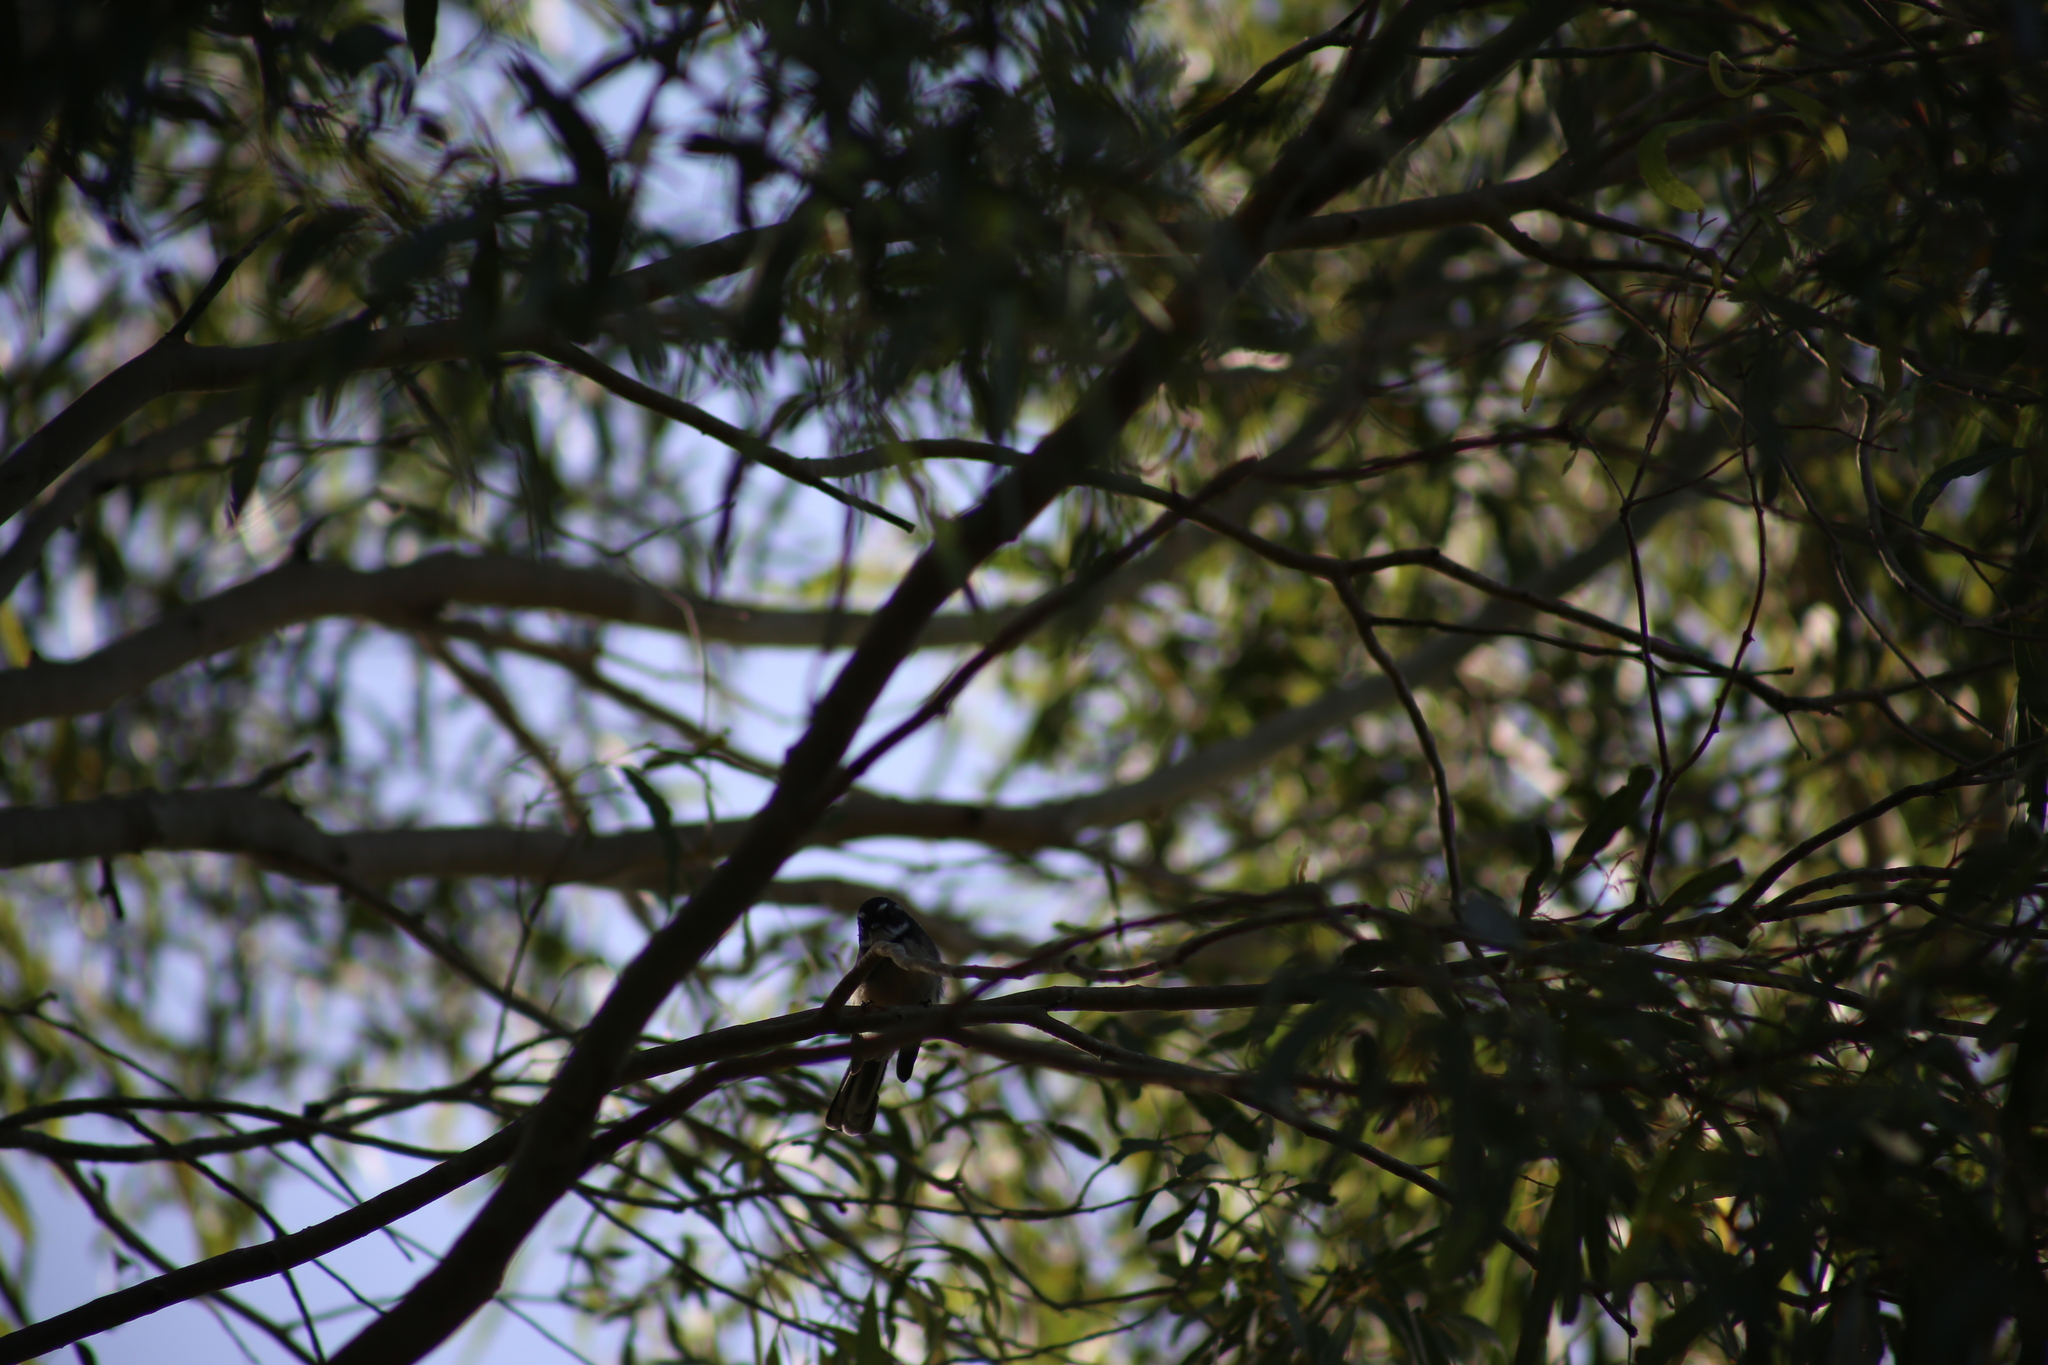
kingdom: Animalia
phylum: Chordata
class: Aves
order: Passeriformes
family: Rhipiduridae
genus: Rhipidura
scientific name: Rhipidura albiscapa
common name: Grey fantail
